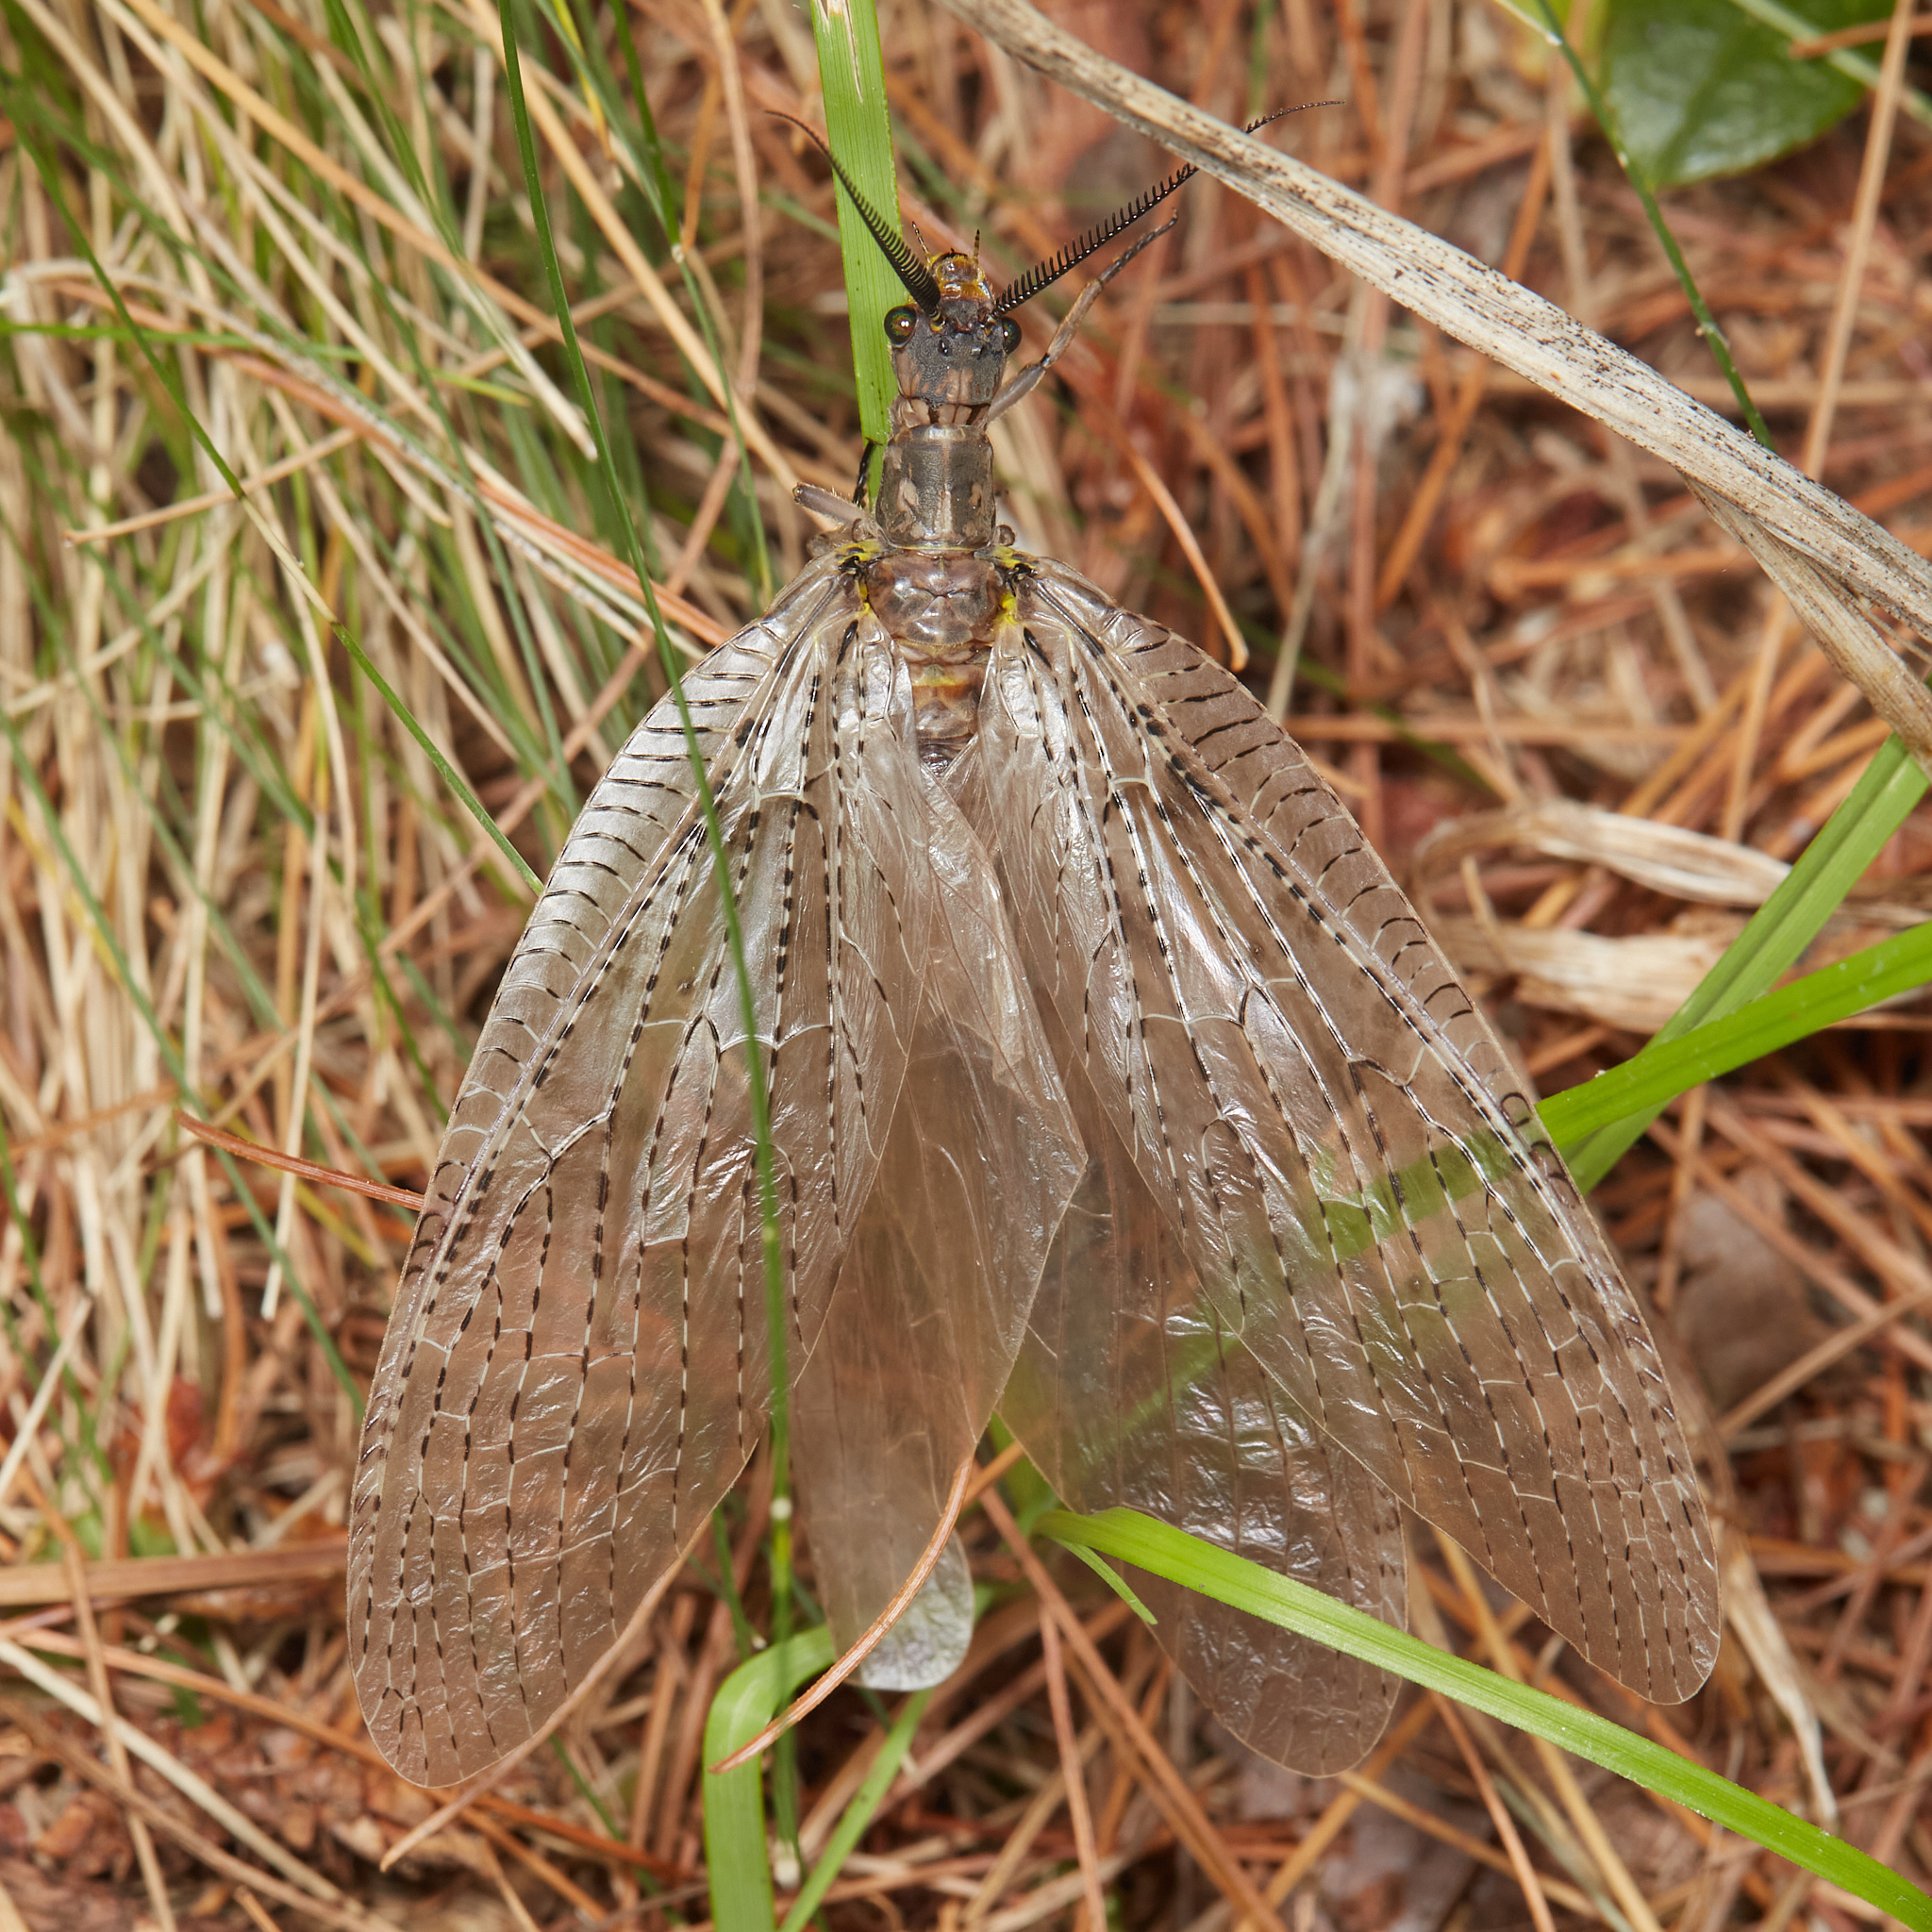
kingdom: Animalia
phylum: Arthropoda
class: Insecta
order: Megaloptera
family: Corydalidae
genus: Chauliodes
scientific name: Chauliodes pectinicornis
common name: Summer fishfly
